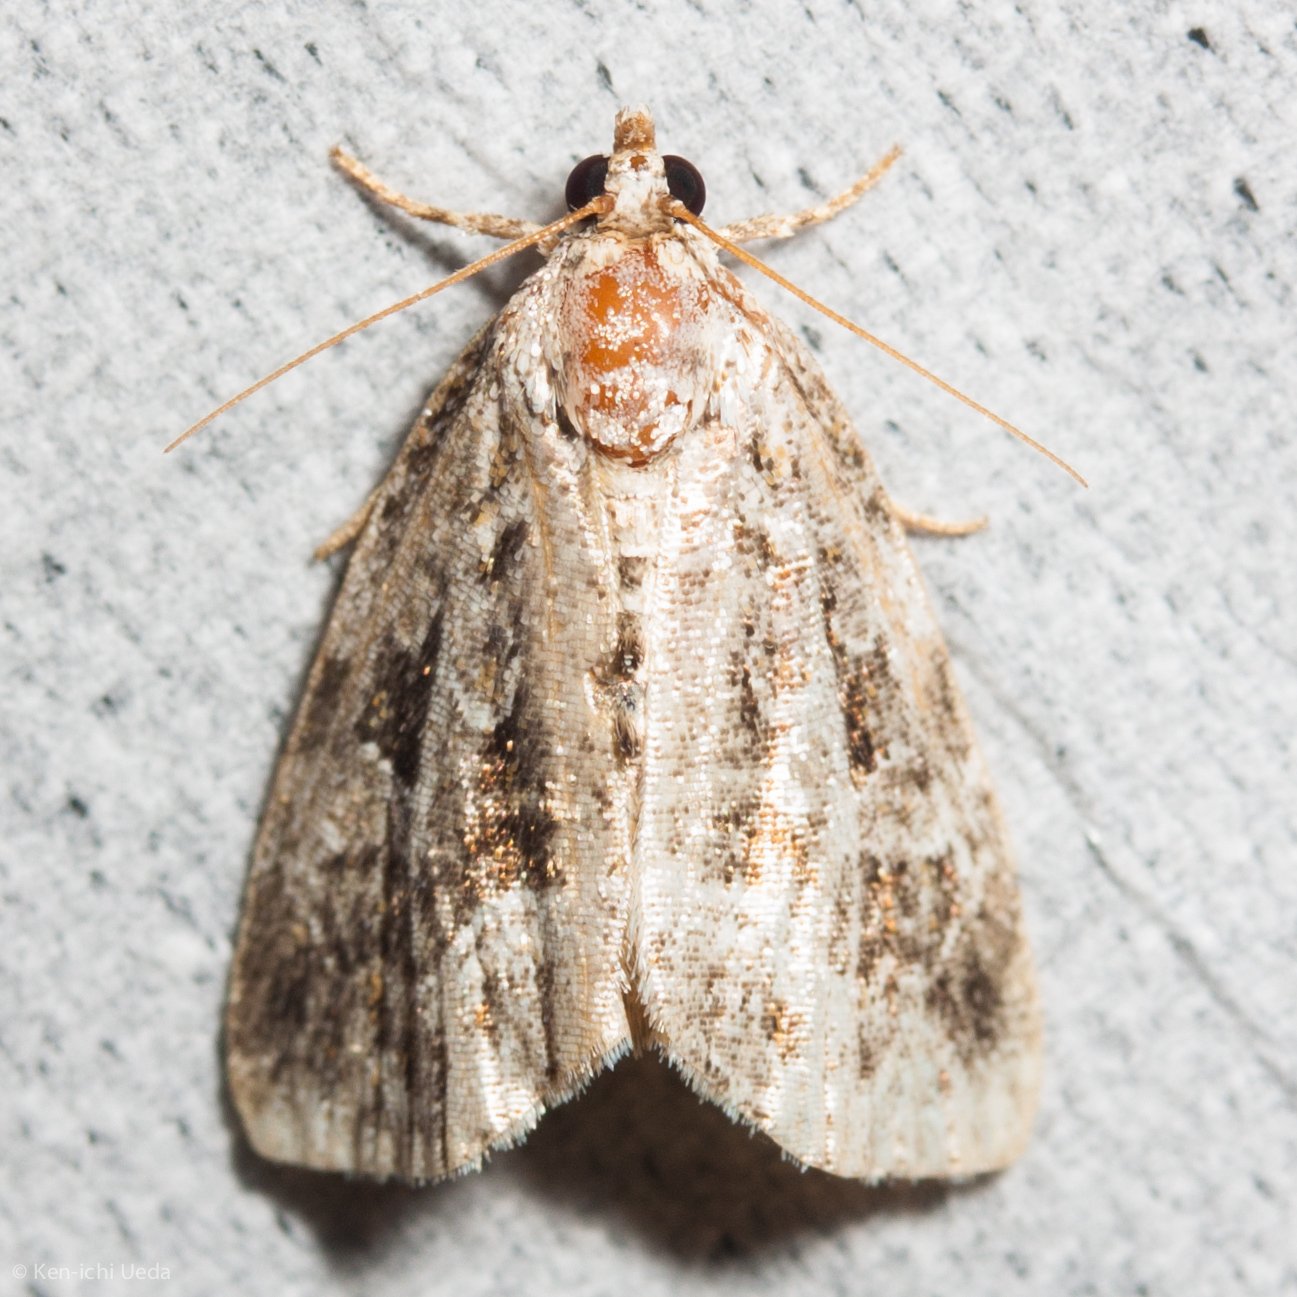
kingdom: Animalia
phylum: Arthropoda
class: Insecta
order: Lepidoptera
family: Noctuidae
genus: Protodeltote
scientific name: Protodeltote muscosula
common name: Large mossy glyph
